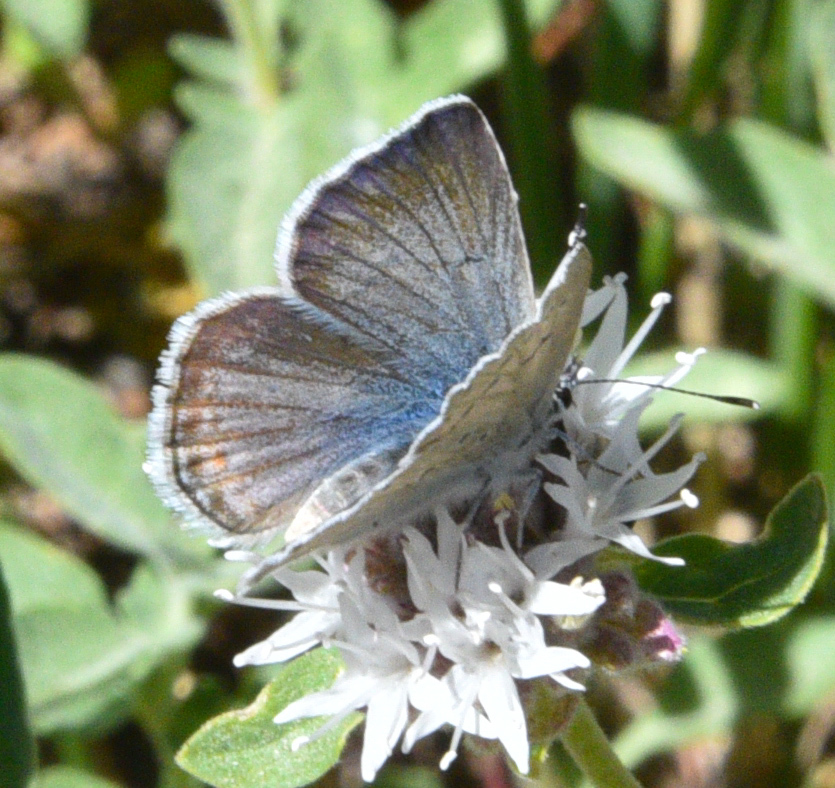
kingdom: Animalia
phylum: Arthropoda
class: Insecta
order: Lepidoptera
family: Lycaenidae
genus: Icaricia
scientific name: Icaricia saepiolus
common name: Greenish blue
